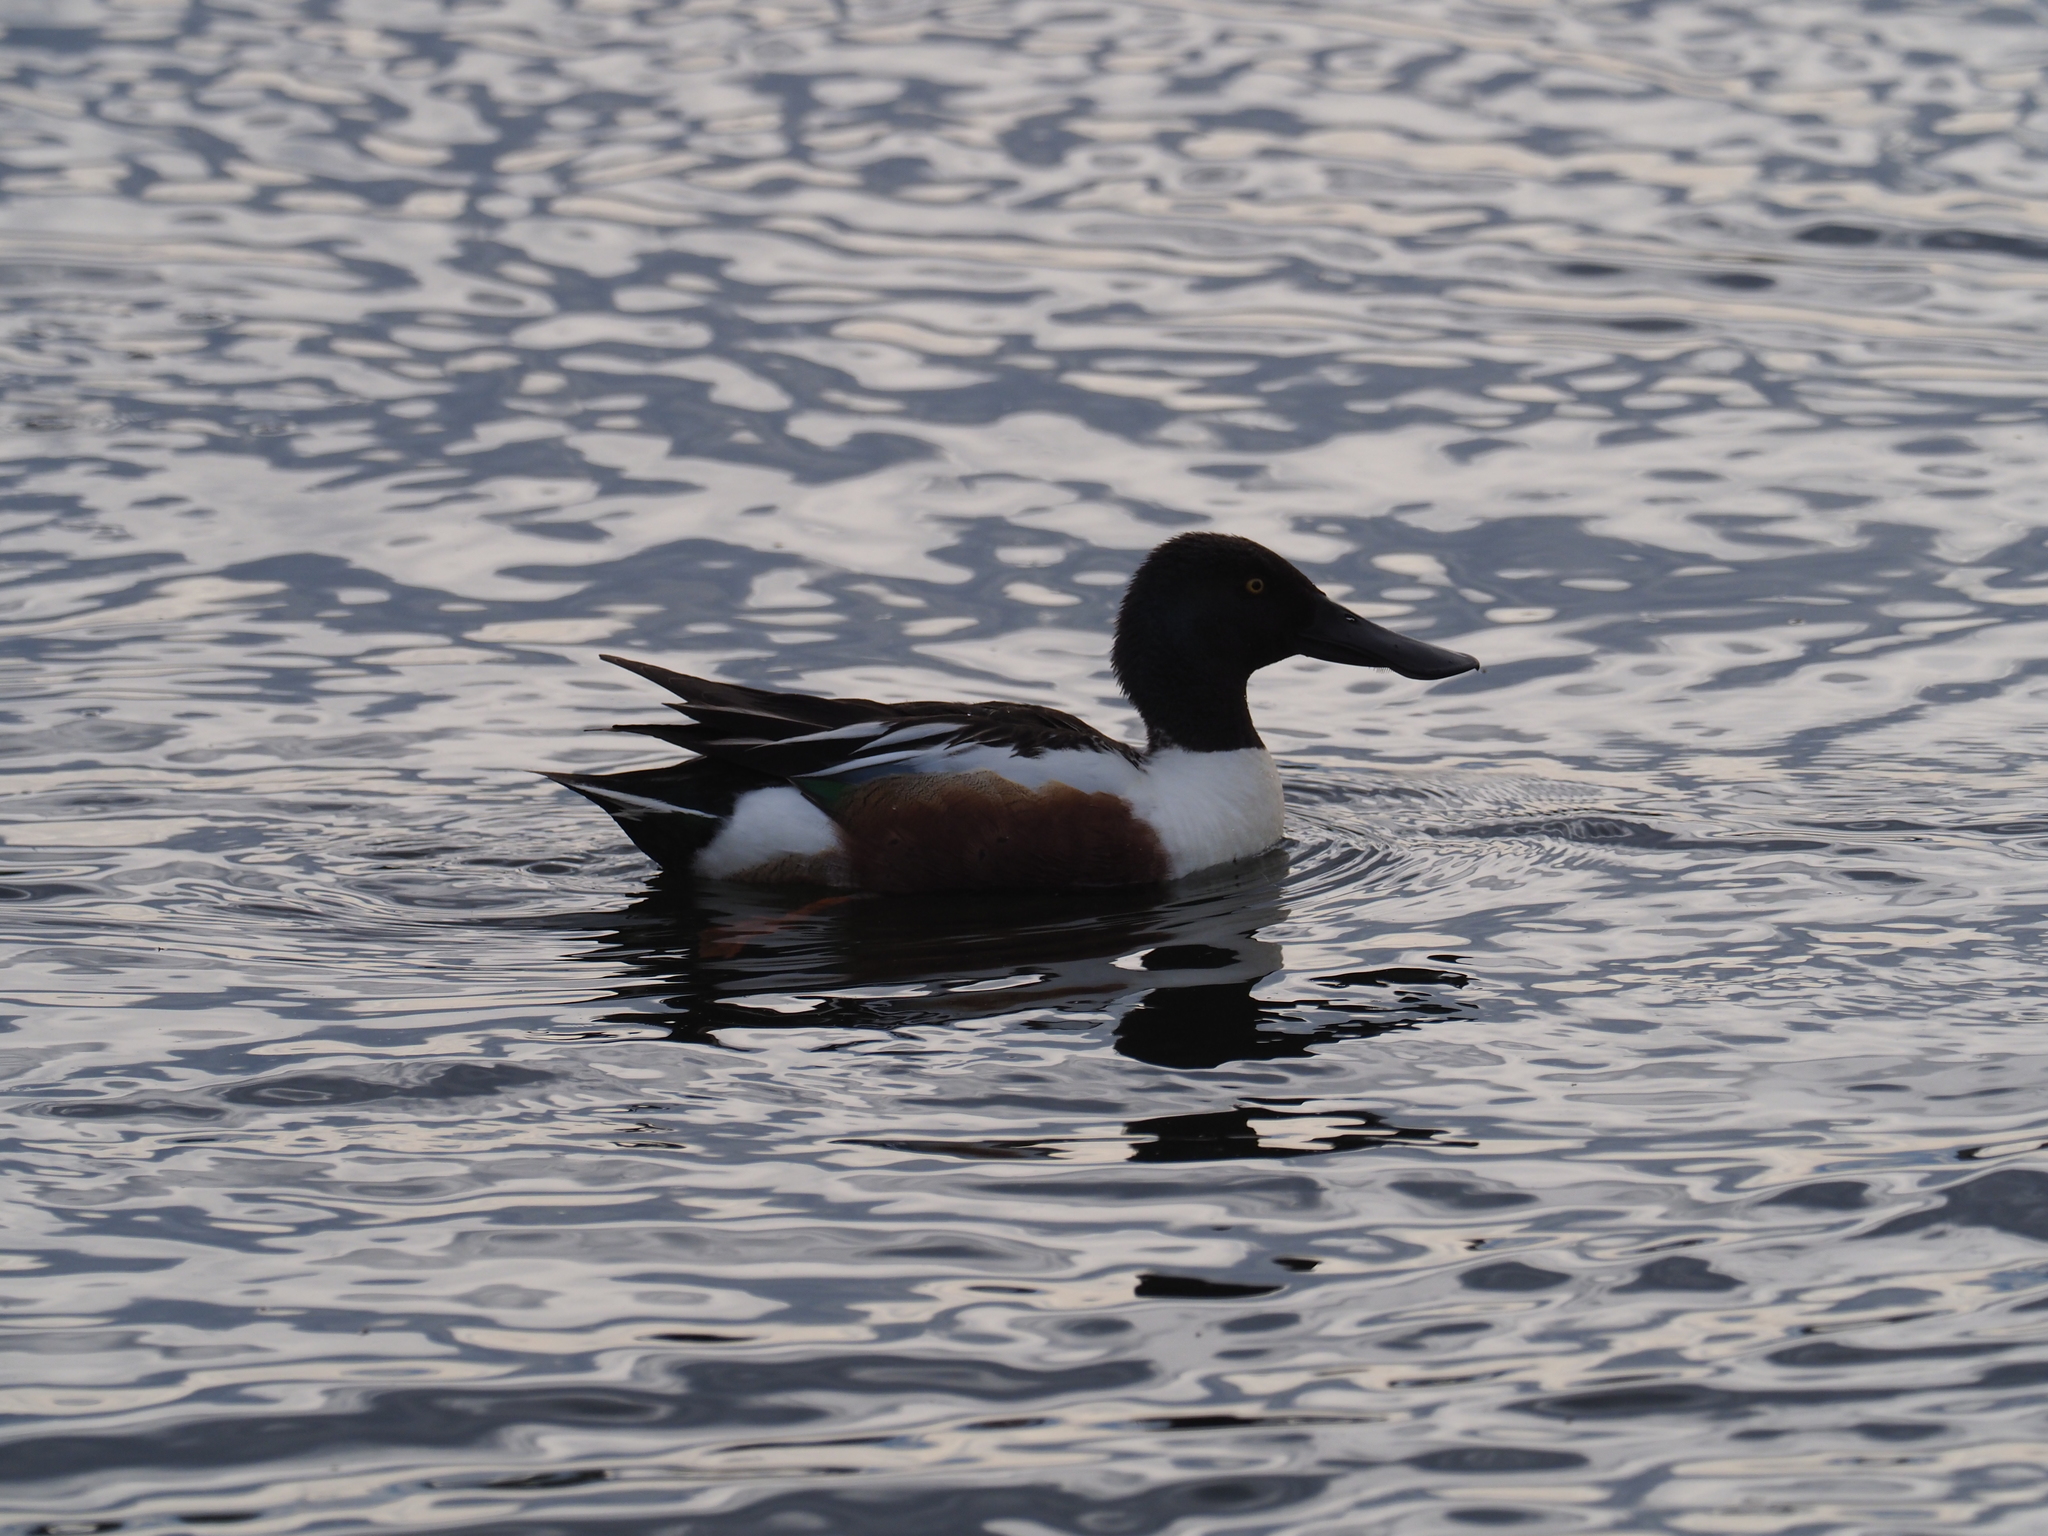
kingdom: Animalia
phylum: Chordata
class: Aves
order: Anseriformes
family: Anatidae
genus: Spatula
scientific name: Spatula clypeata
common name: Northern shoveler
